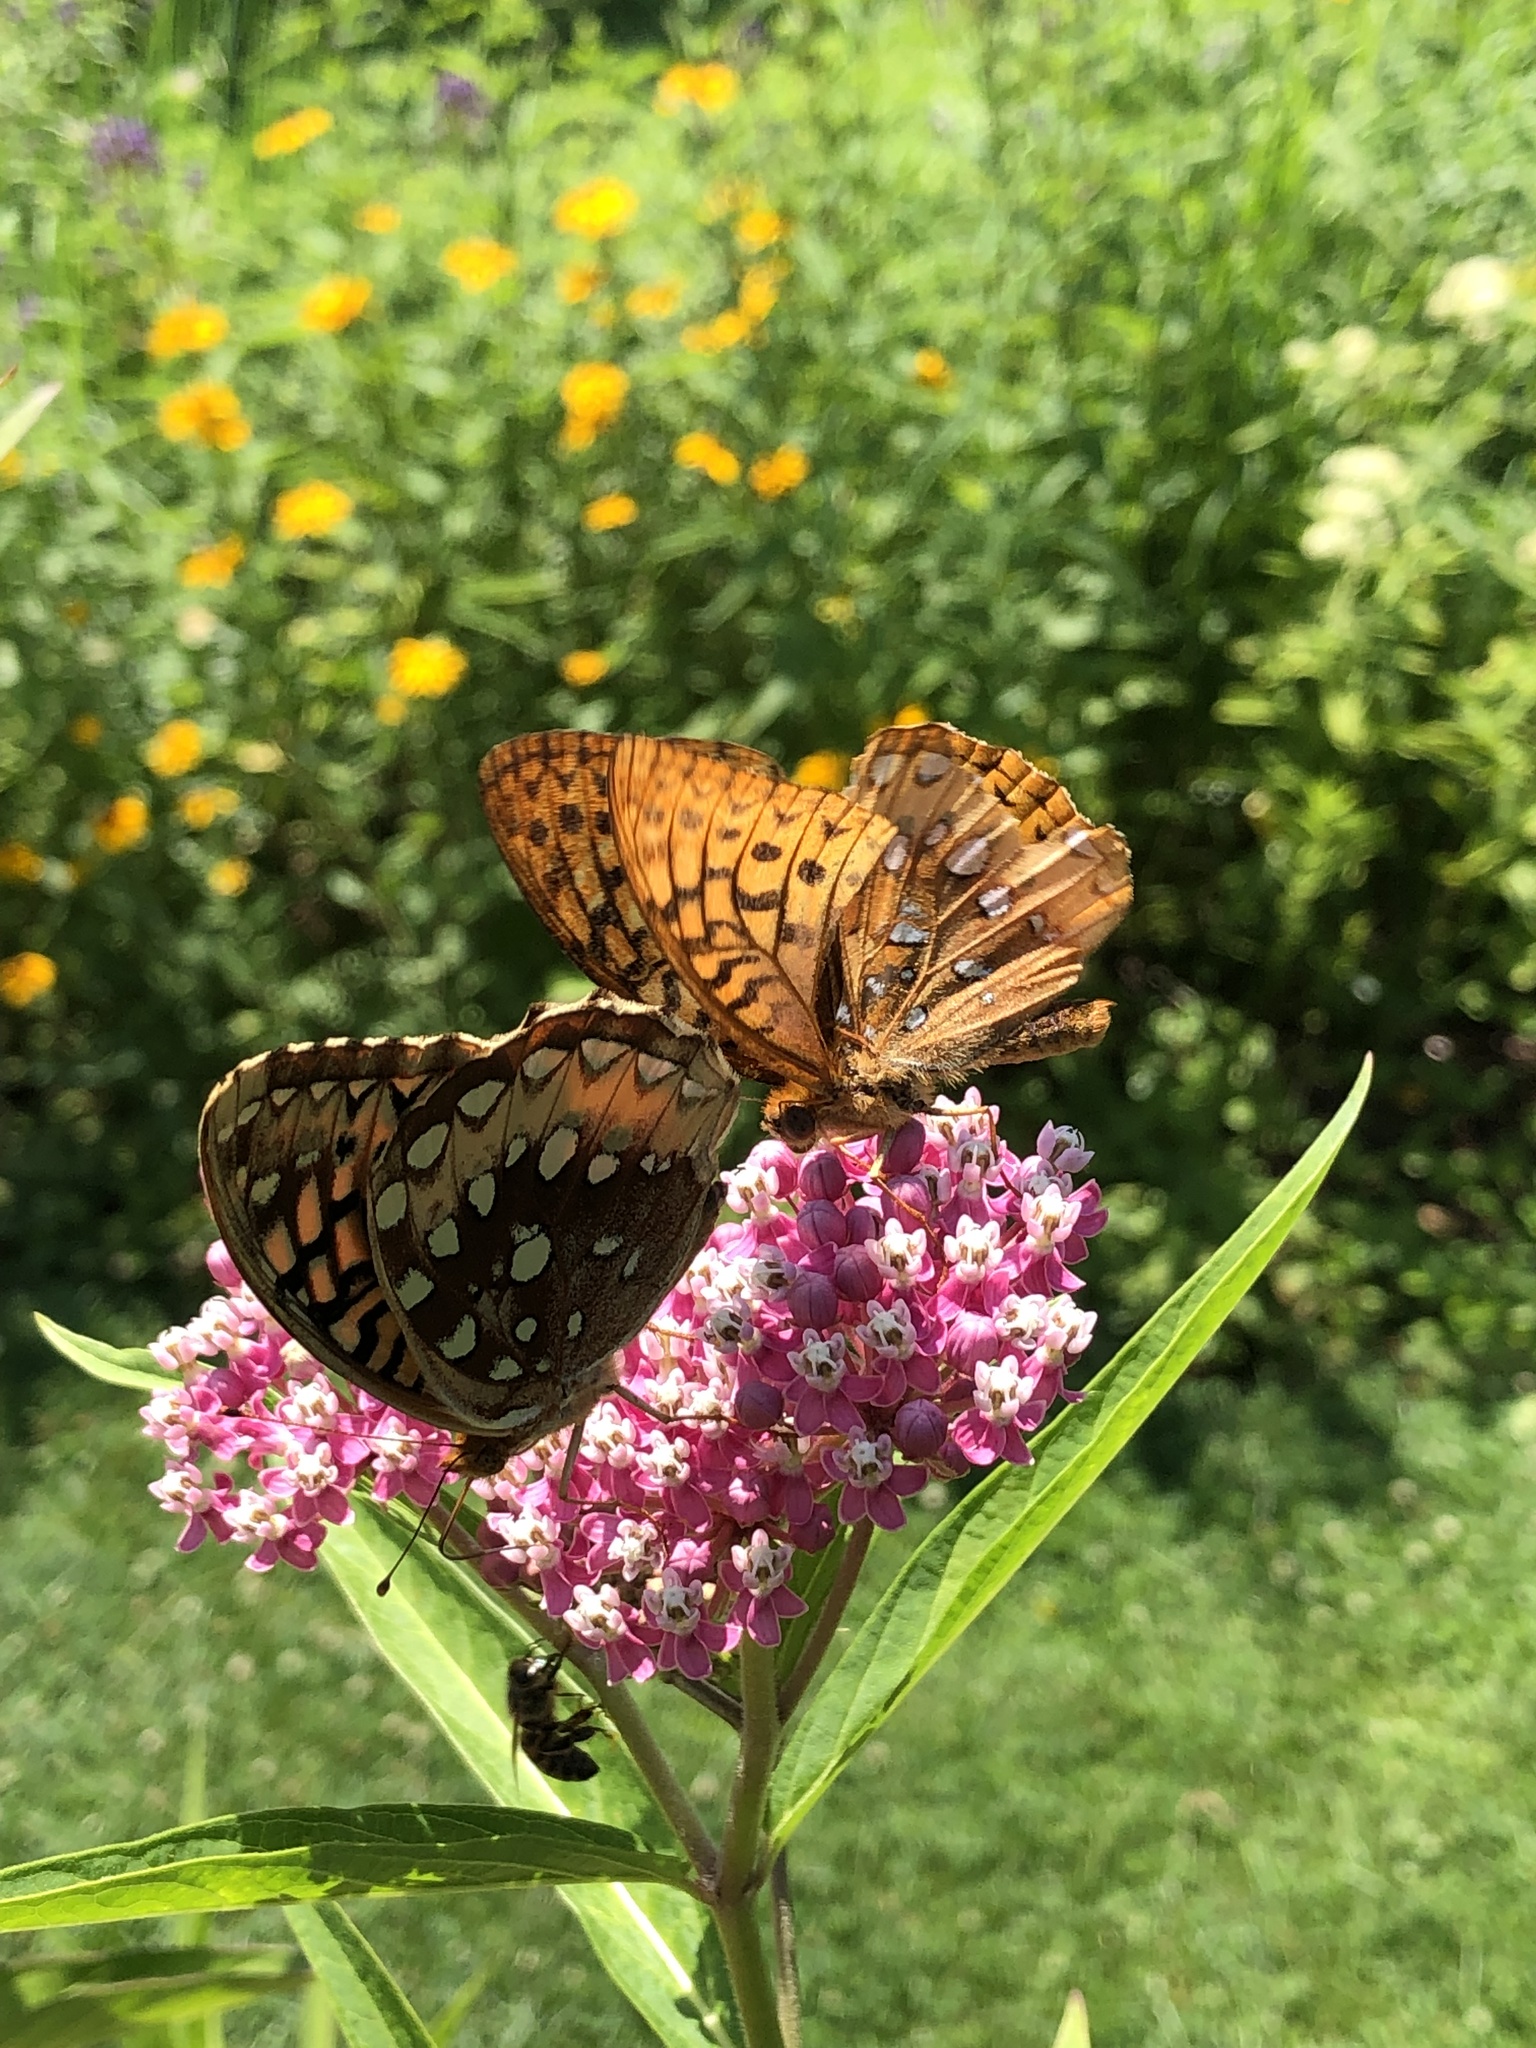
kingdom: Animalia
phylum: Arthropoda
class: Insecta
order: Lepidoptera
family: Nymphalidae
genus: Speyeria
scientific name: Speyeria cybele
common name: Great spangled fritillary
